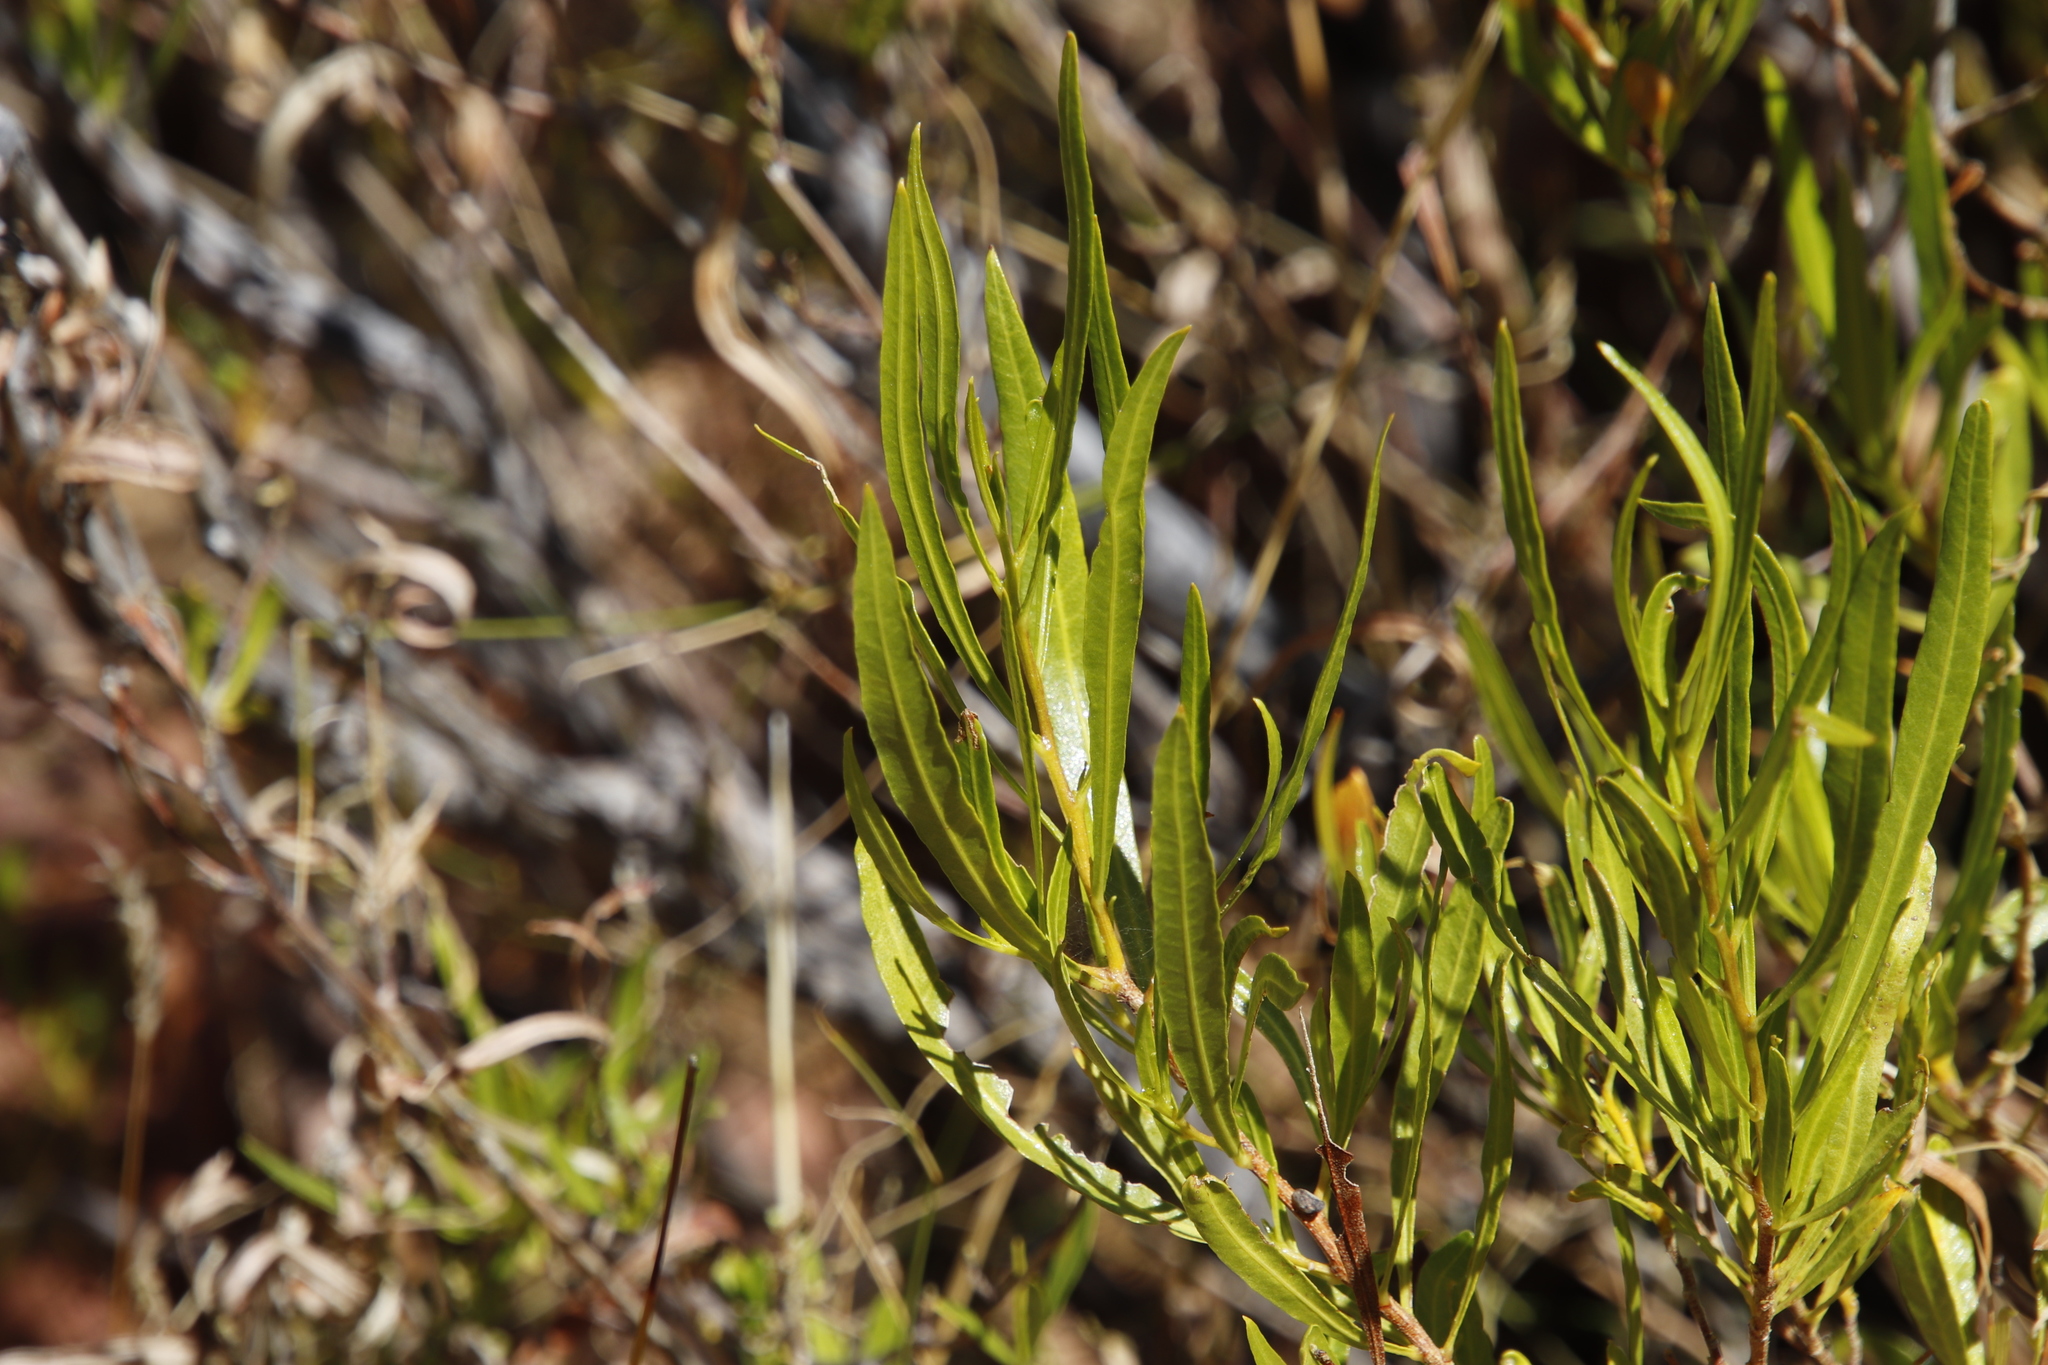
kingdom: Plantae
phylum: Tracheophyta
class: Magnoliopsida
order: Sapindales
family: Sapindaceae
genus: Dodonaea
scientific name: Dodonaea viscosa
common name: Hopbush
